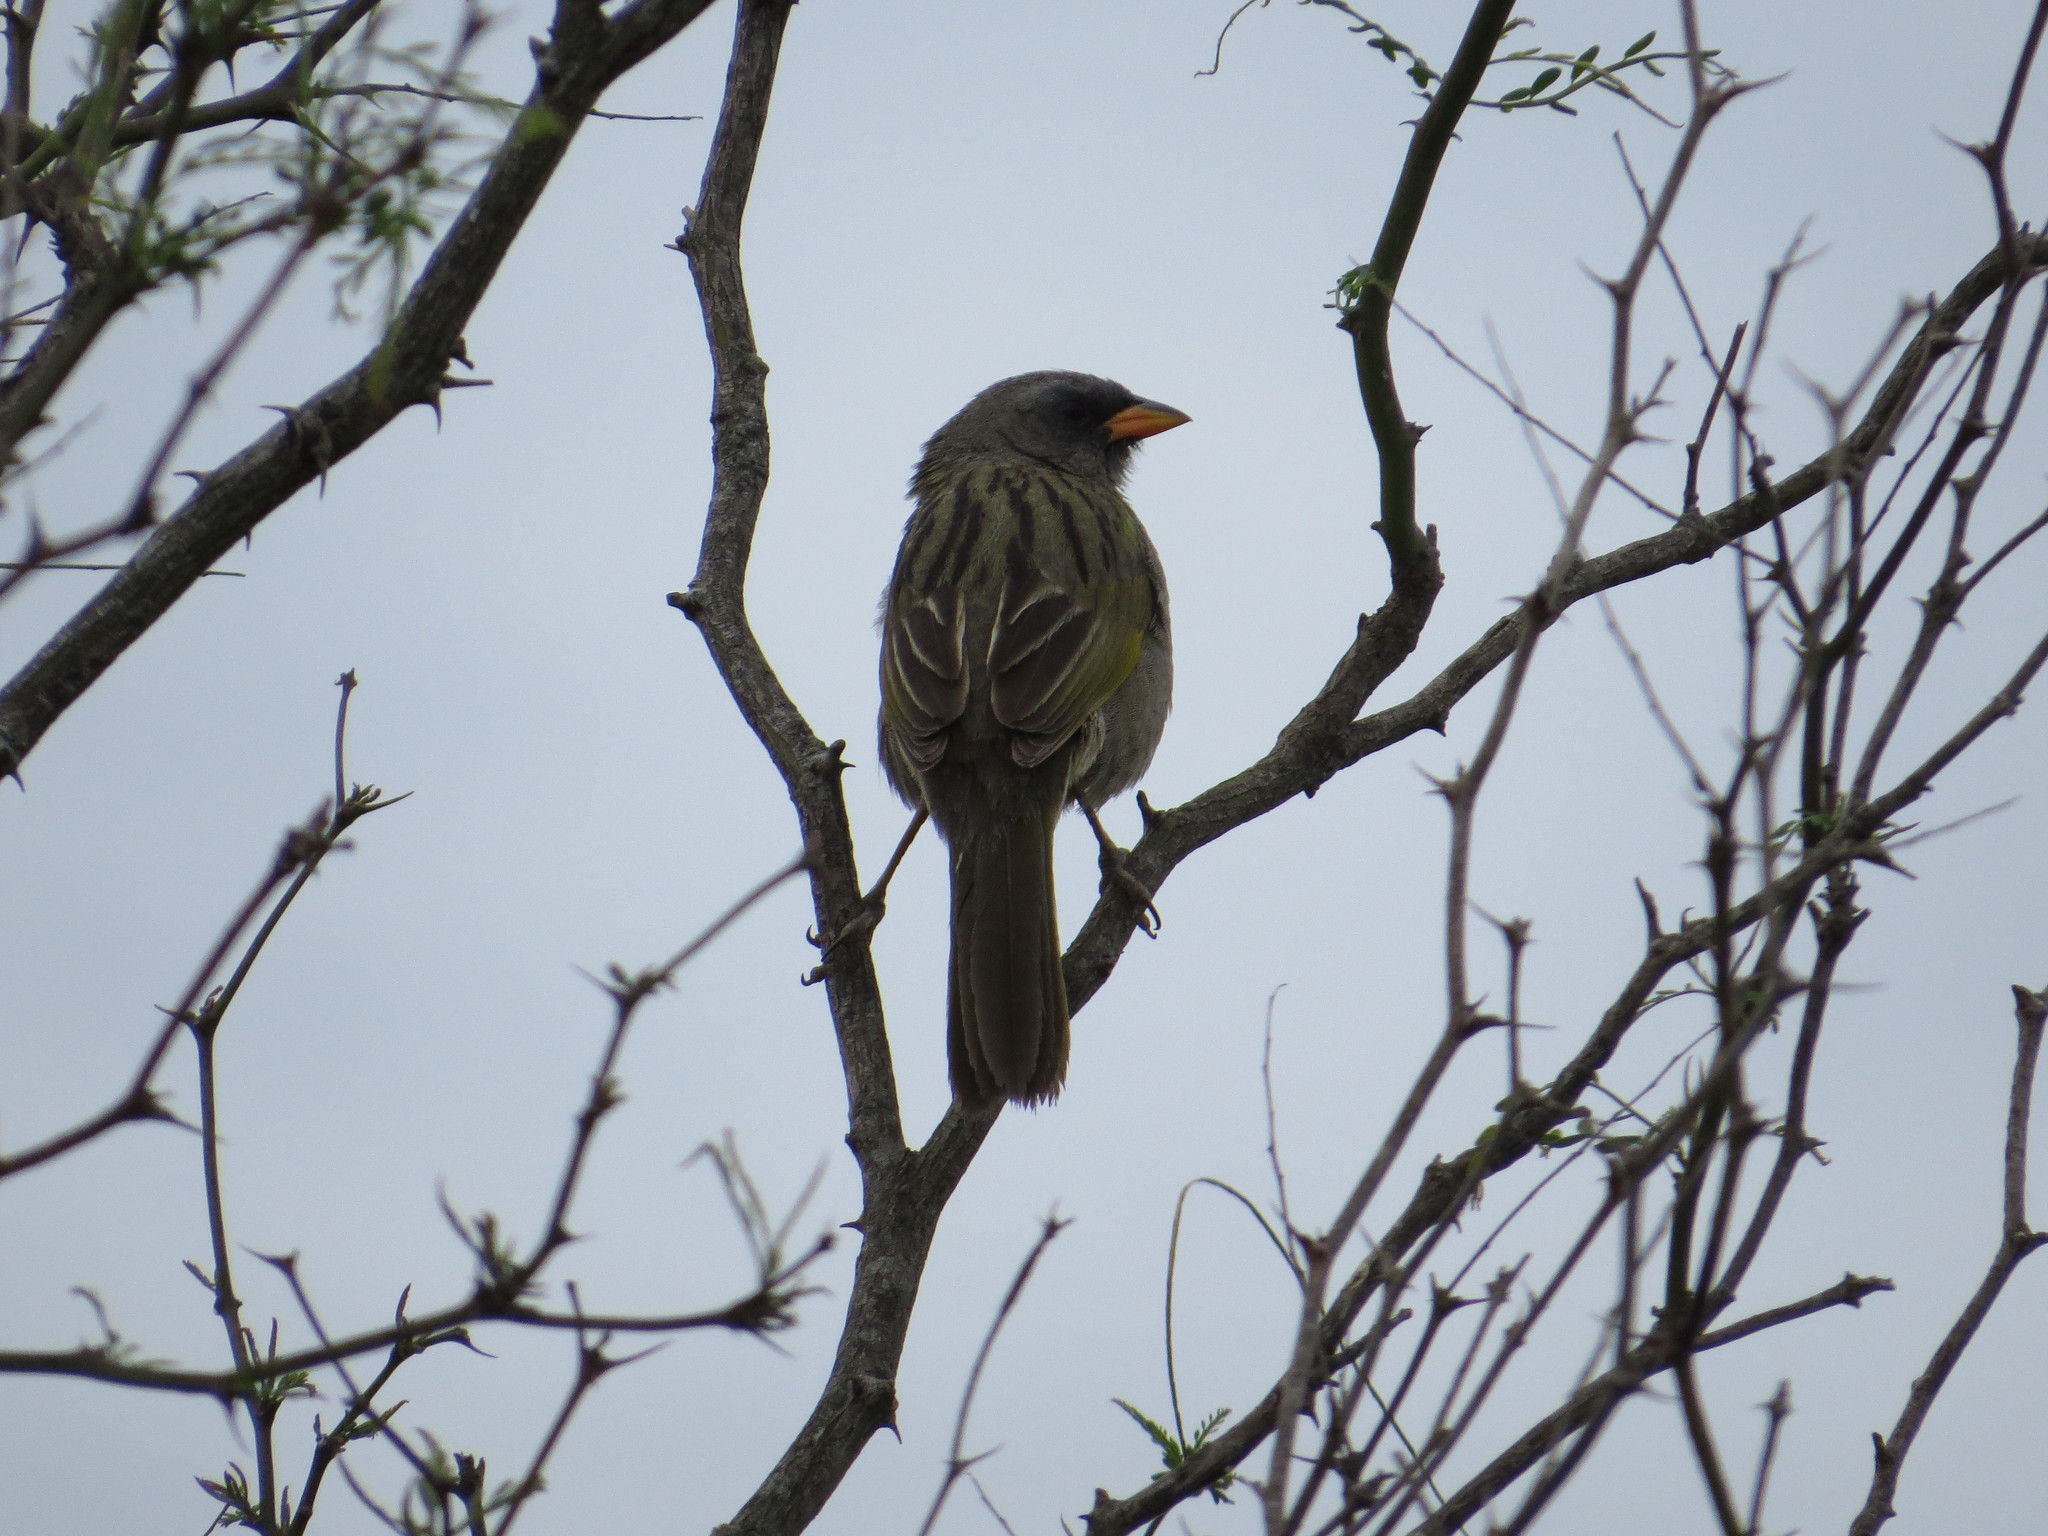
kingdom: Animalia
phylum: Chordata
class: Aves
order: Passeriformes
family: Thraupidae
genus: Embernagra
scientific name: Embernagra platensis
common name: Pampa finch
